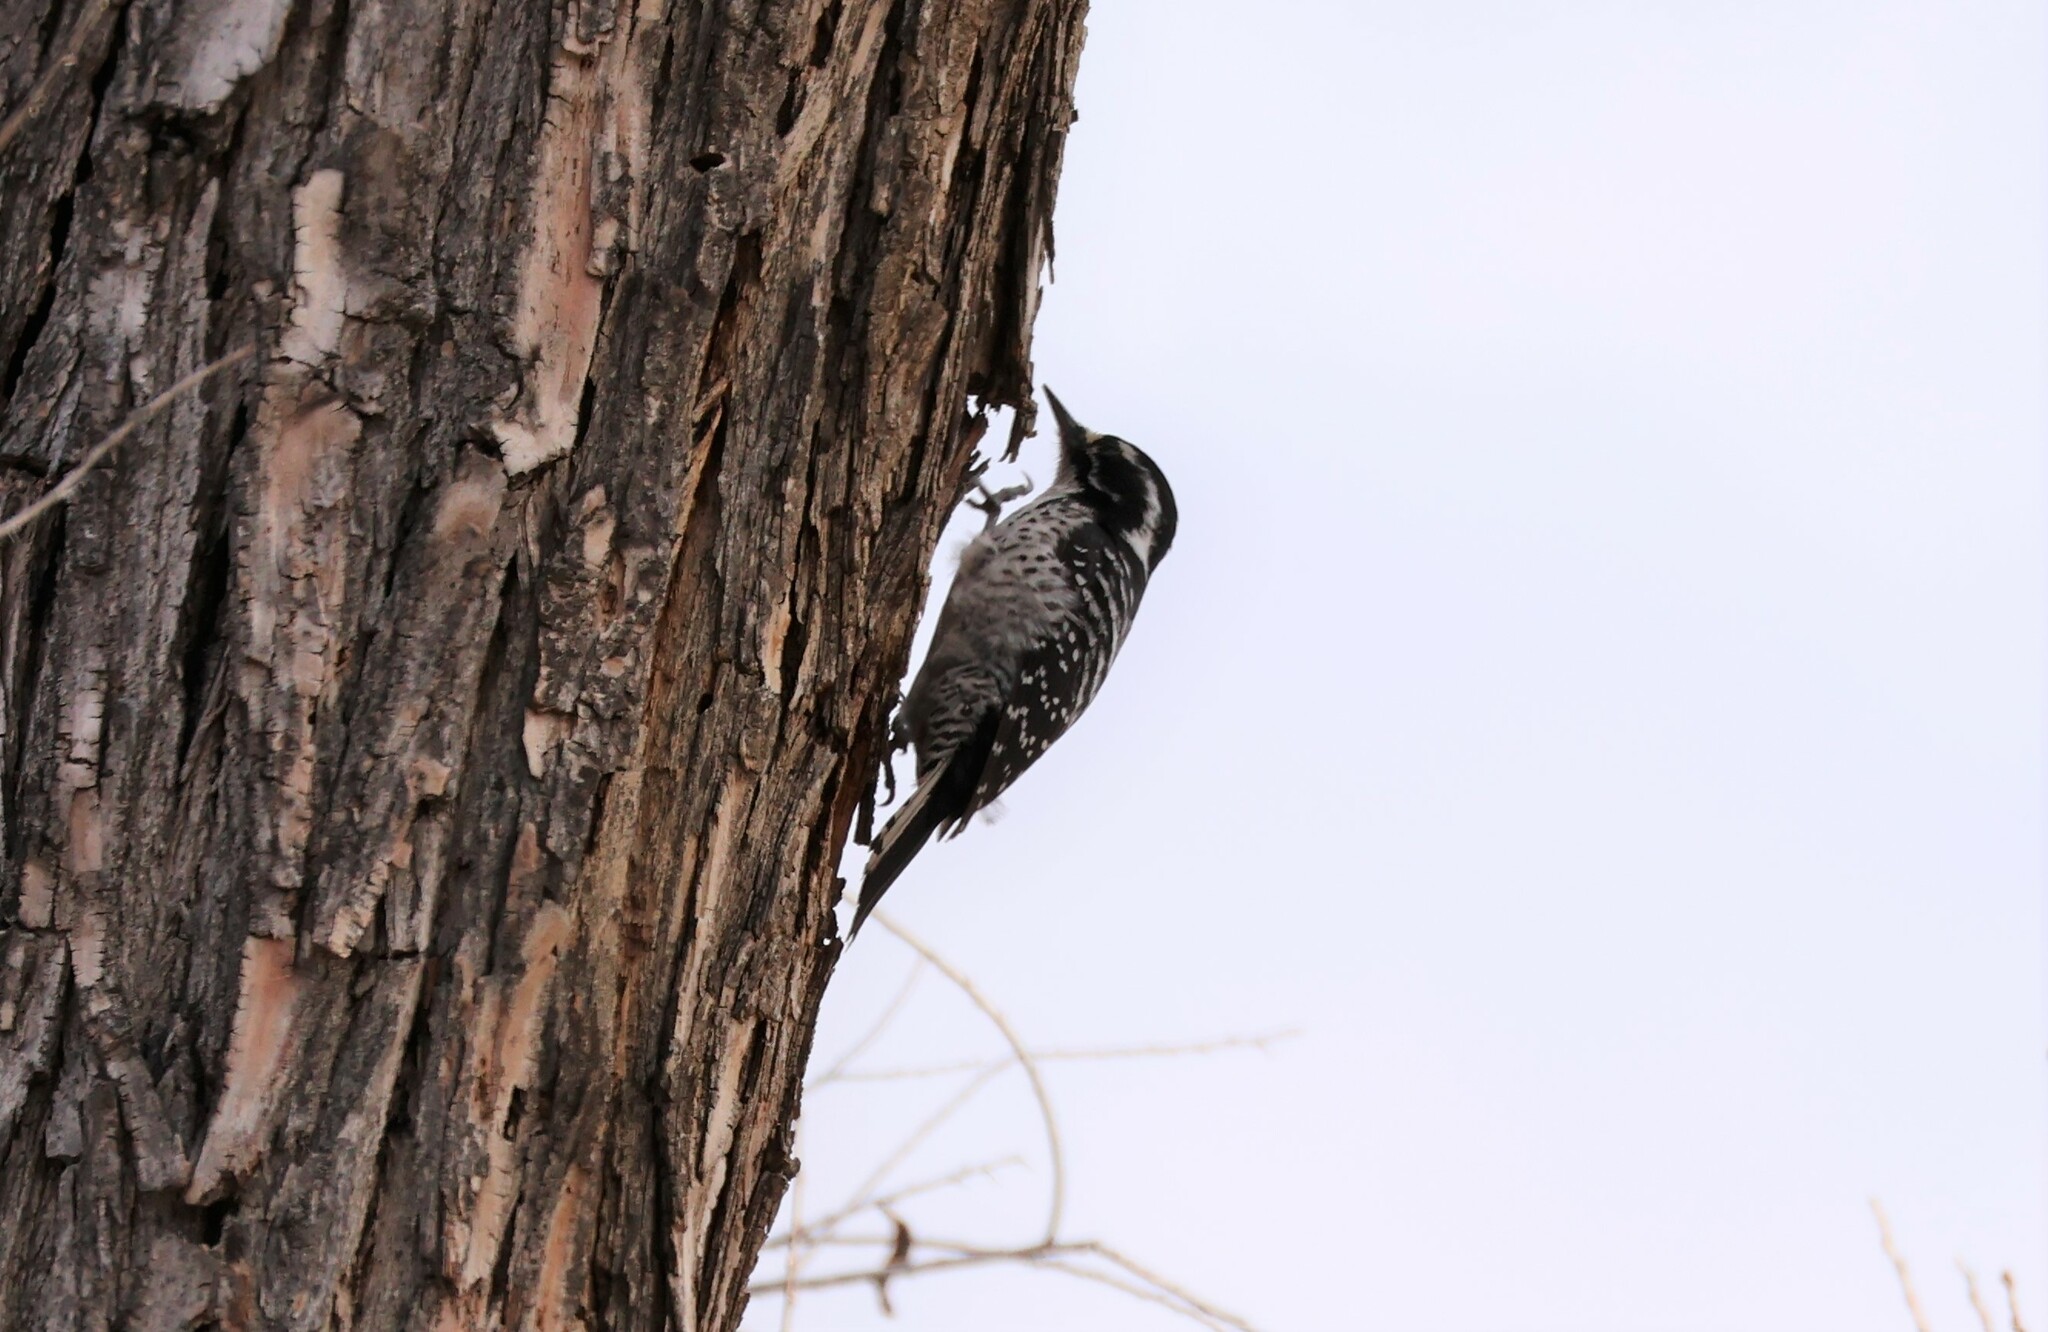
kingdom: Animalia
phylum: Chordata
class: Aves
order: Piciformes
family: Picidae
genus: Dryobates
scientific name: Dryobates nuttallii
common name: Nuttall's woodpecker
